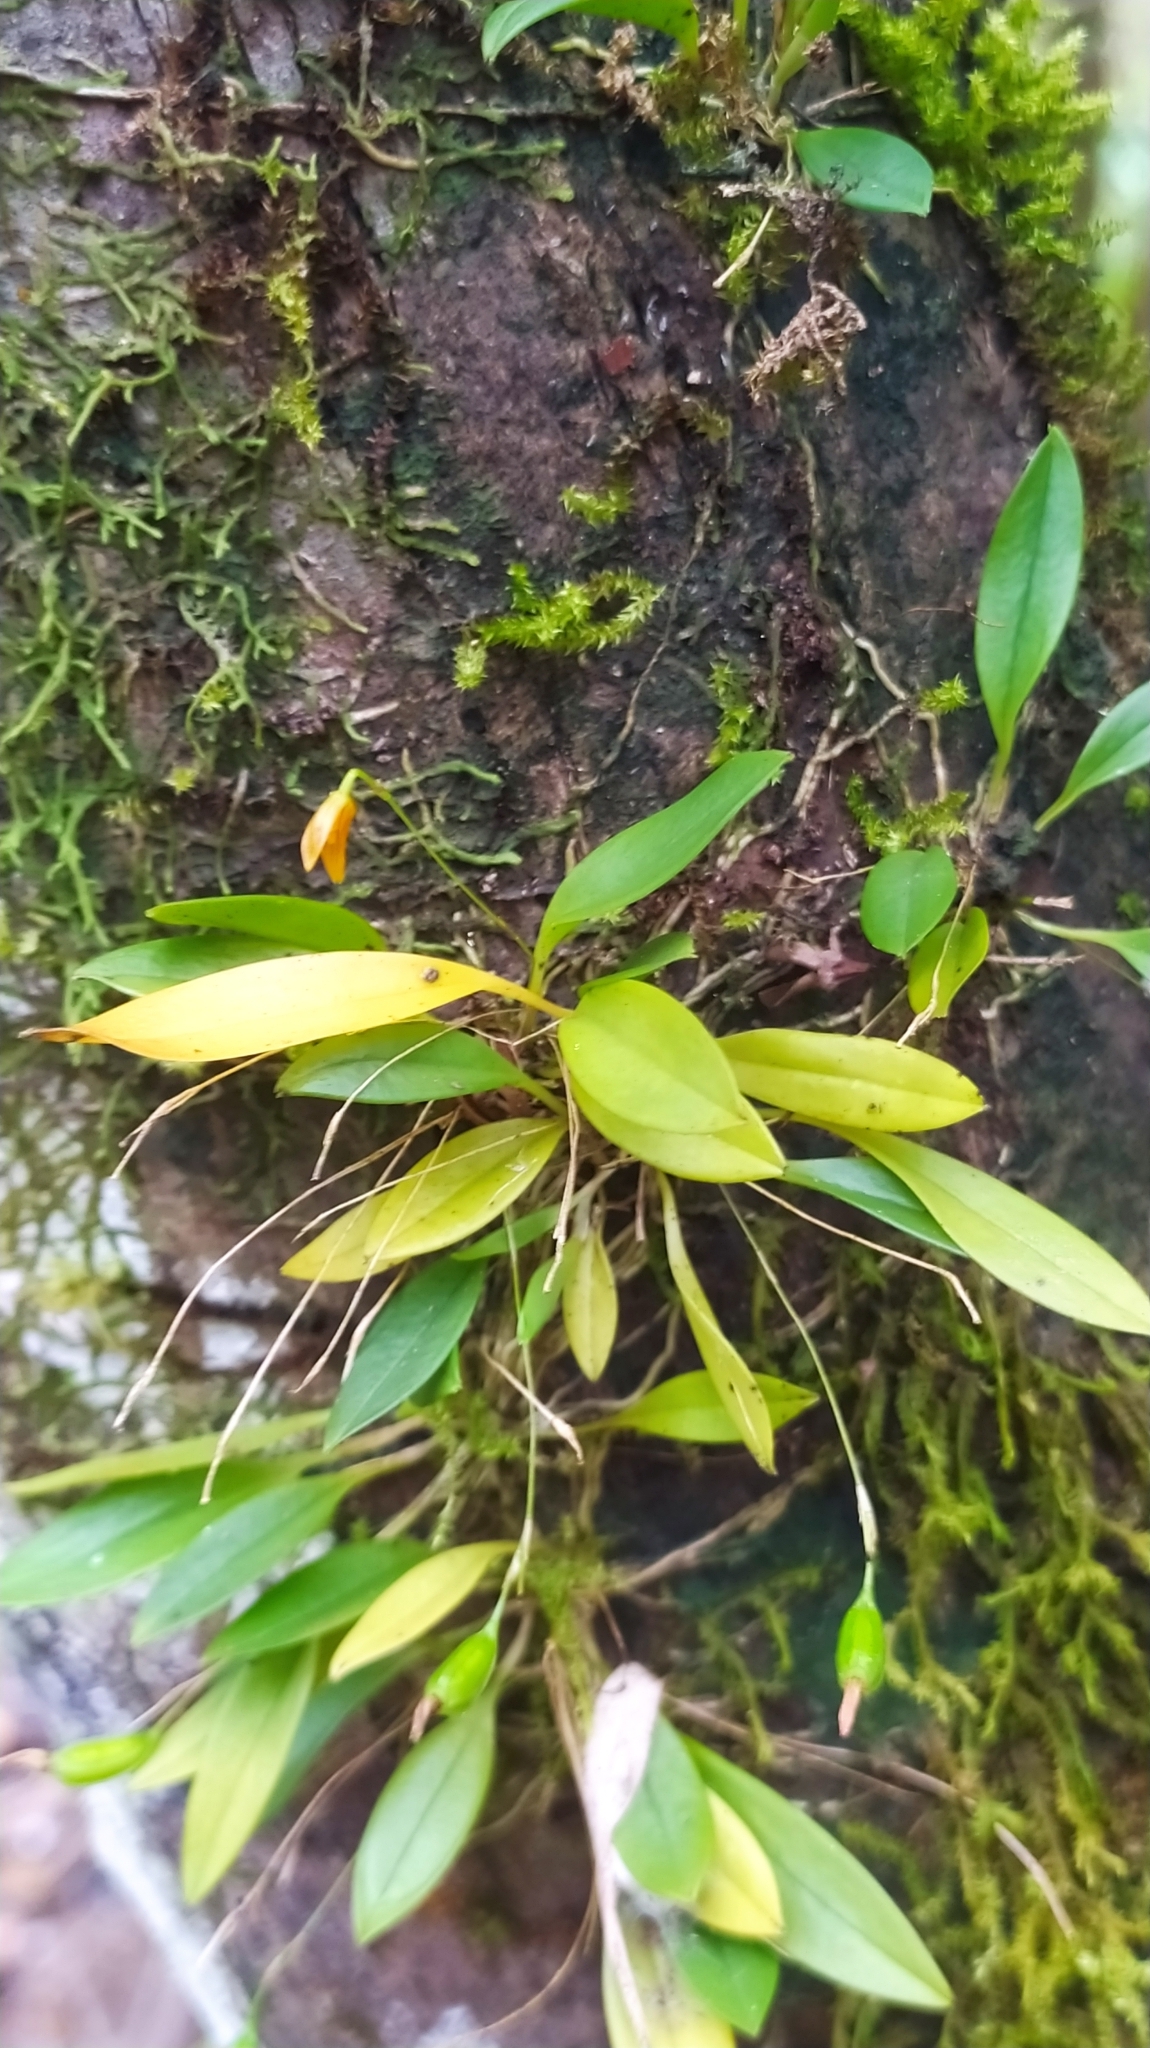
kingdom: Plantae
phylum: Tracheophyta
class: Liliopsida
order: Asparagales
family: Orchidaceae
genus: Specklinia
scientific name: Specklinia striata
